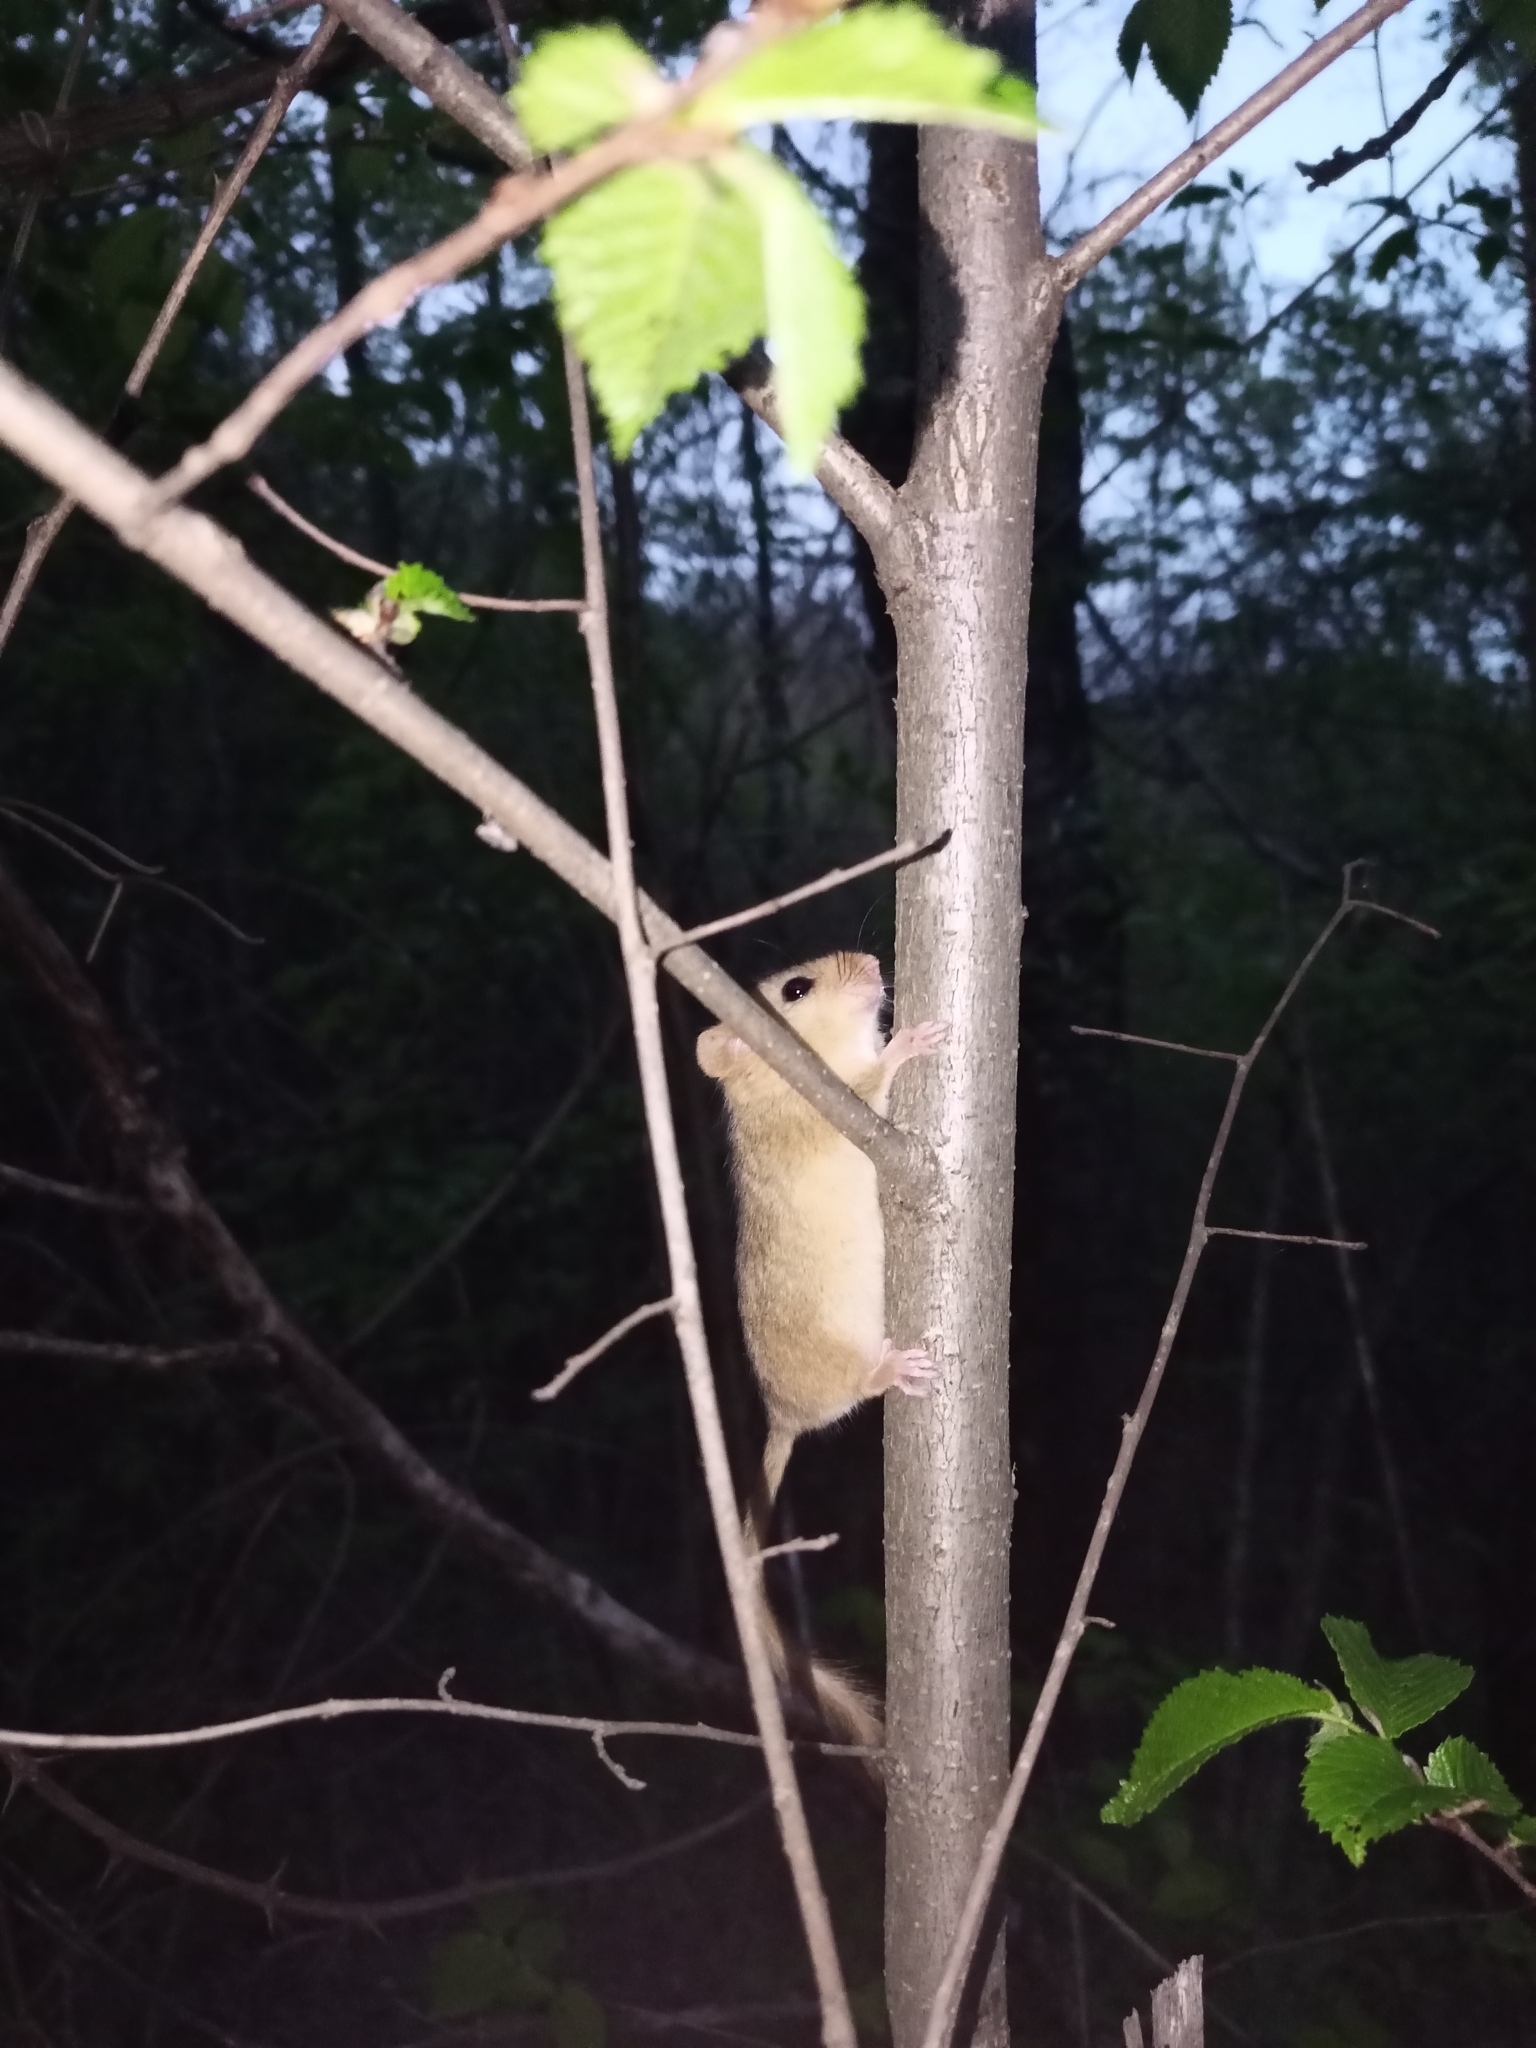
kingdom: Animalia
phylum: Chordata
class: Mammalia
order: Rodentia
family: Gliridae
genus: Muscardinus
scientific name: Muscardinus avellanarius
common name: Hazel dormouse
